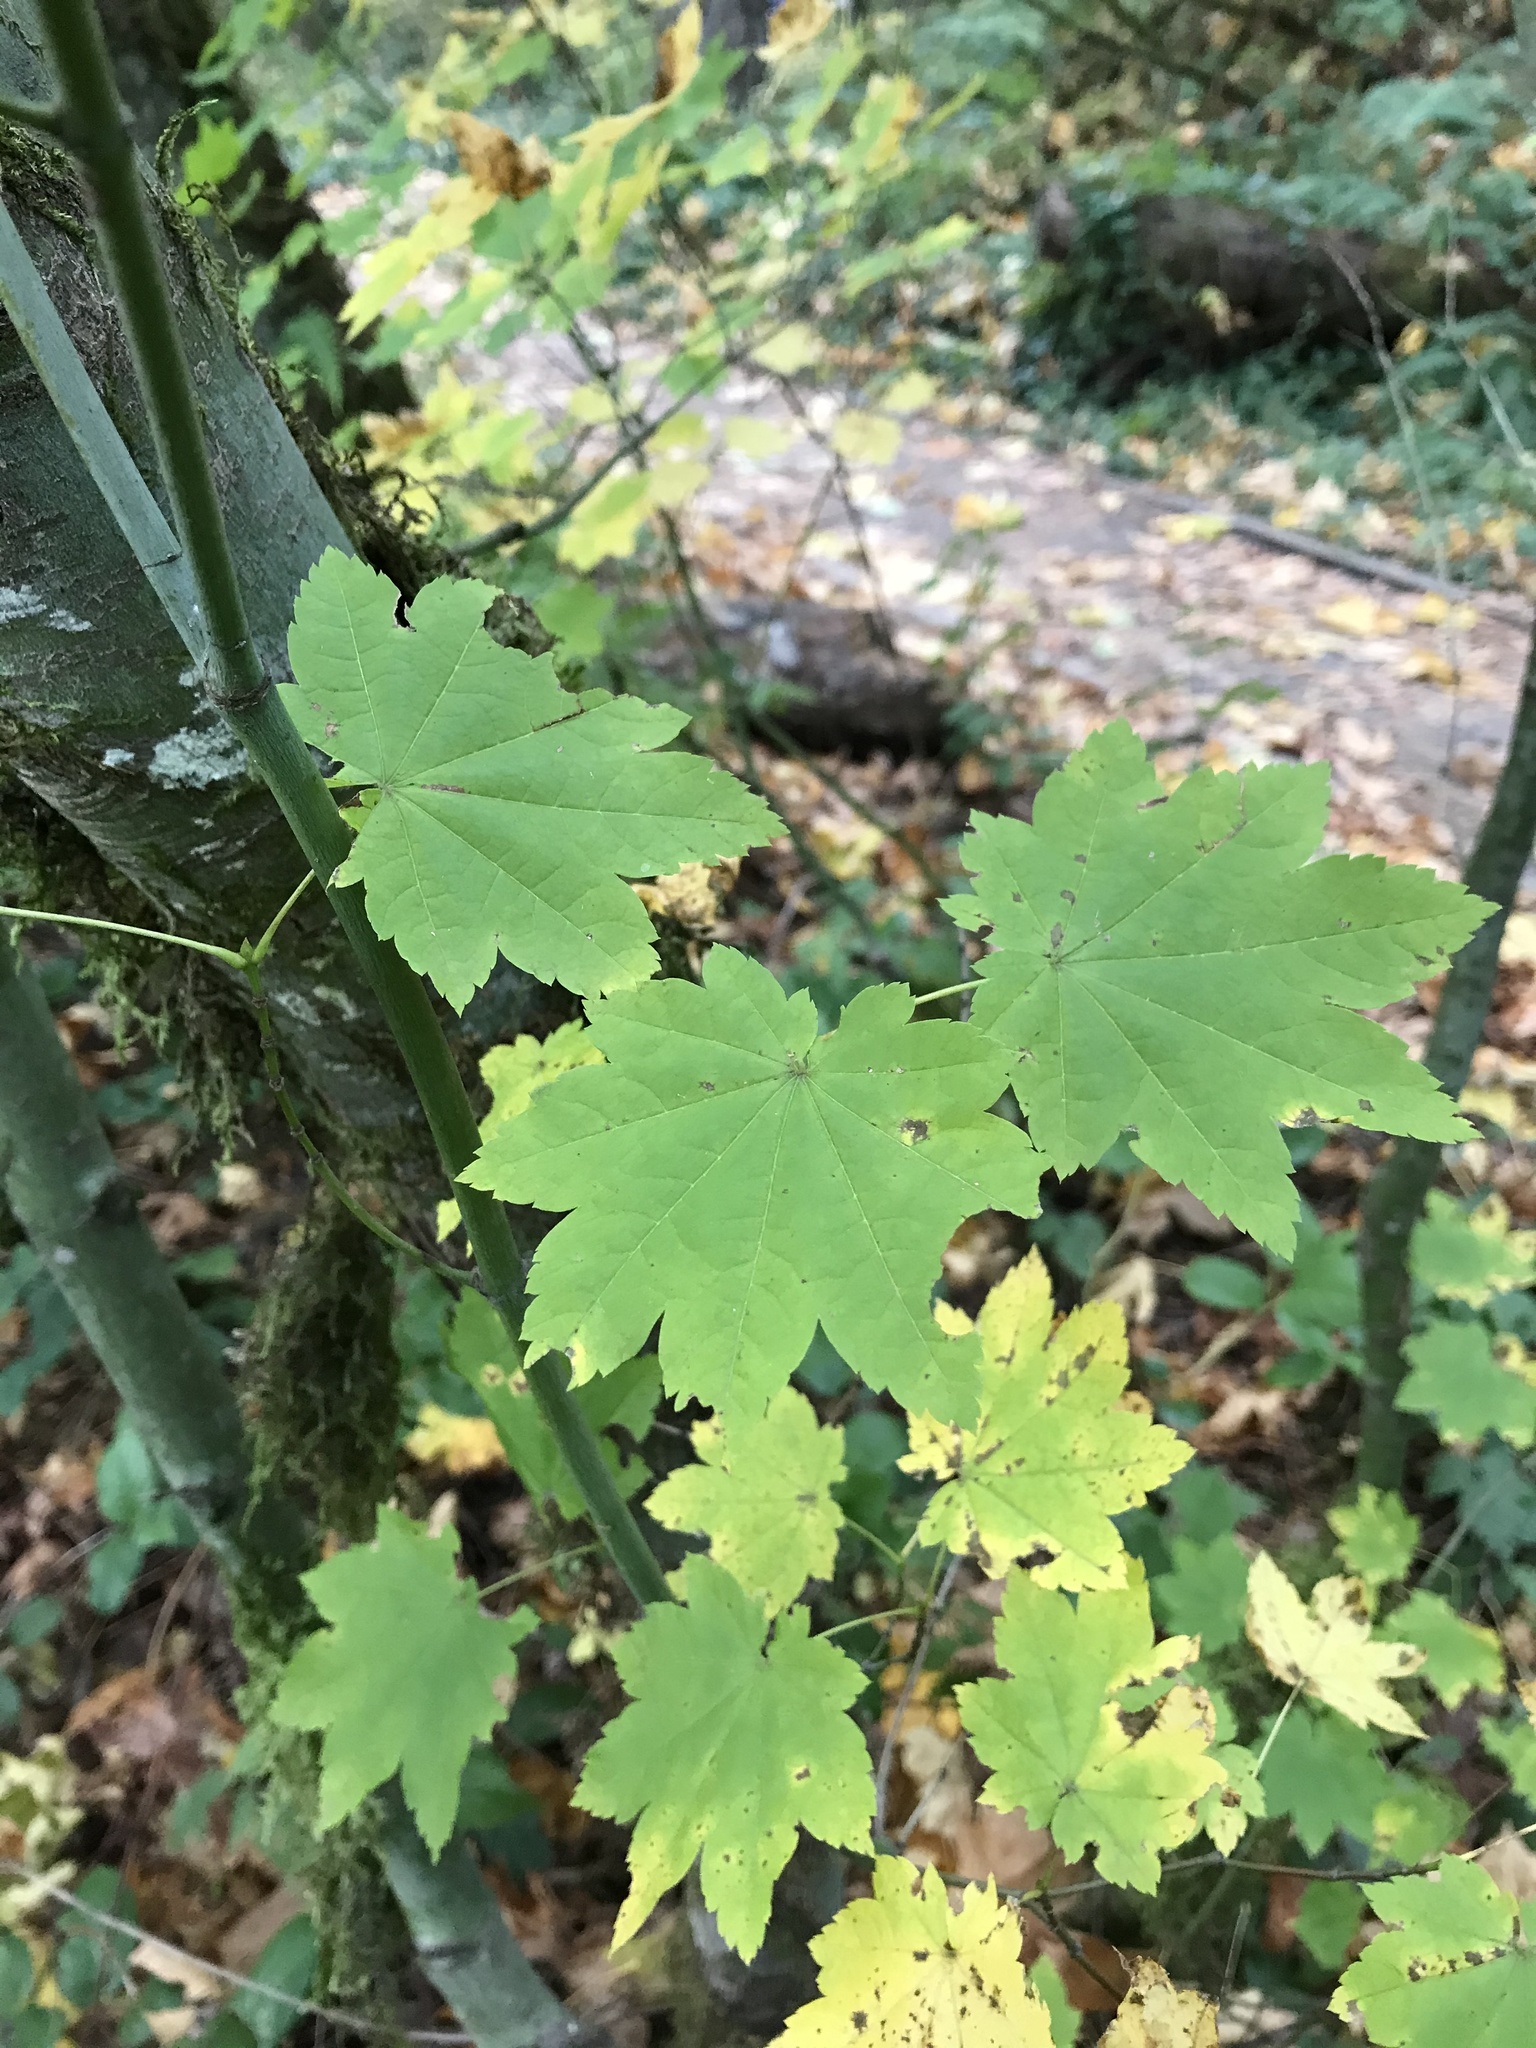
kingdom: Plantae
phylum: Tracheophyta
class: Magnoliopsida
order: Sapindales
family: Sapindaceae
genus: Acer
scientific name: Acer circinatum
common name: Vine maple
